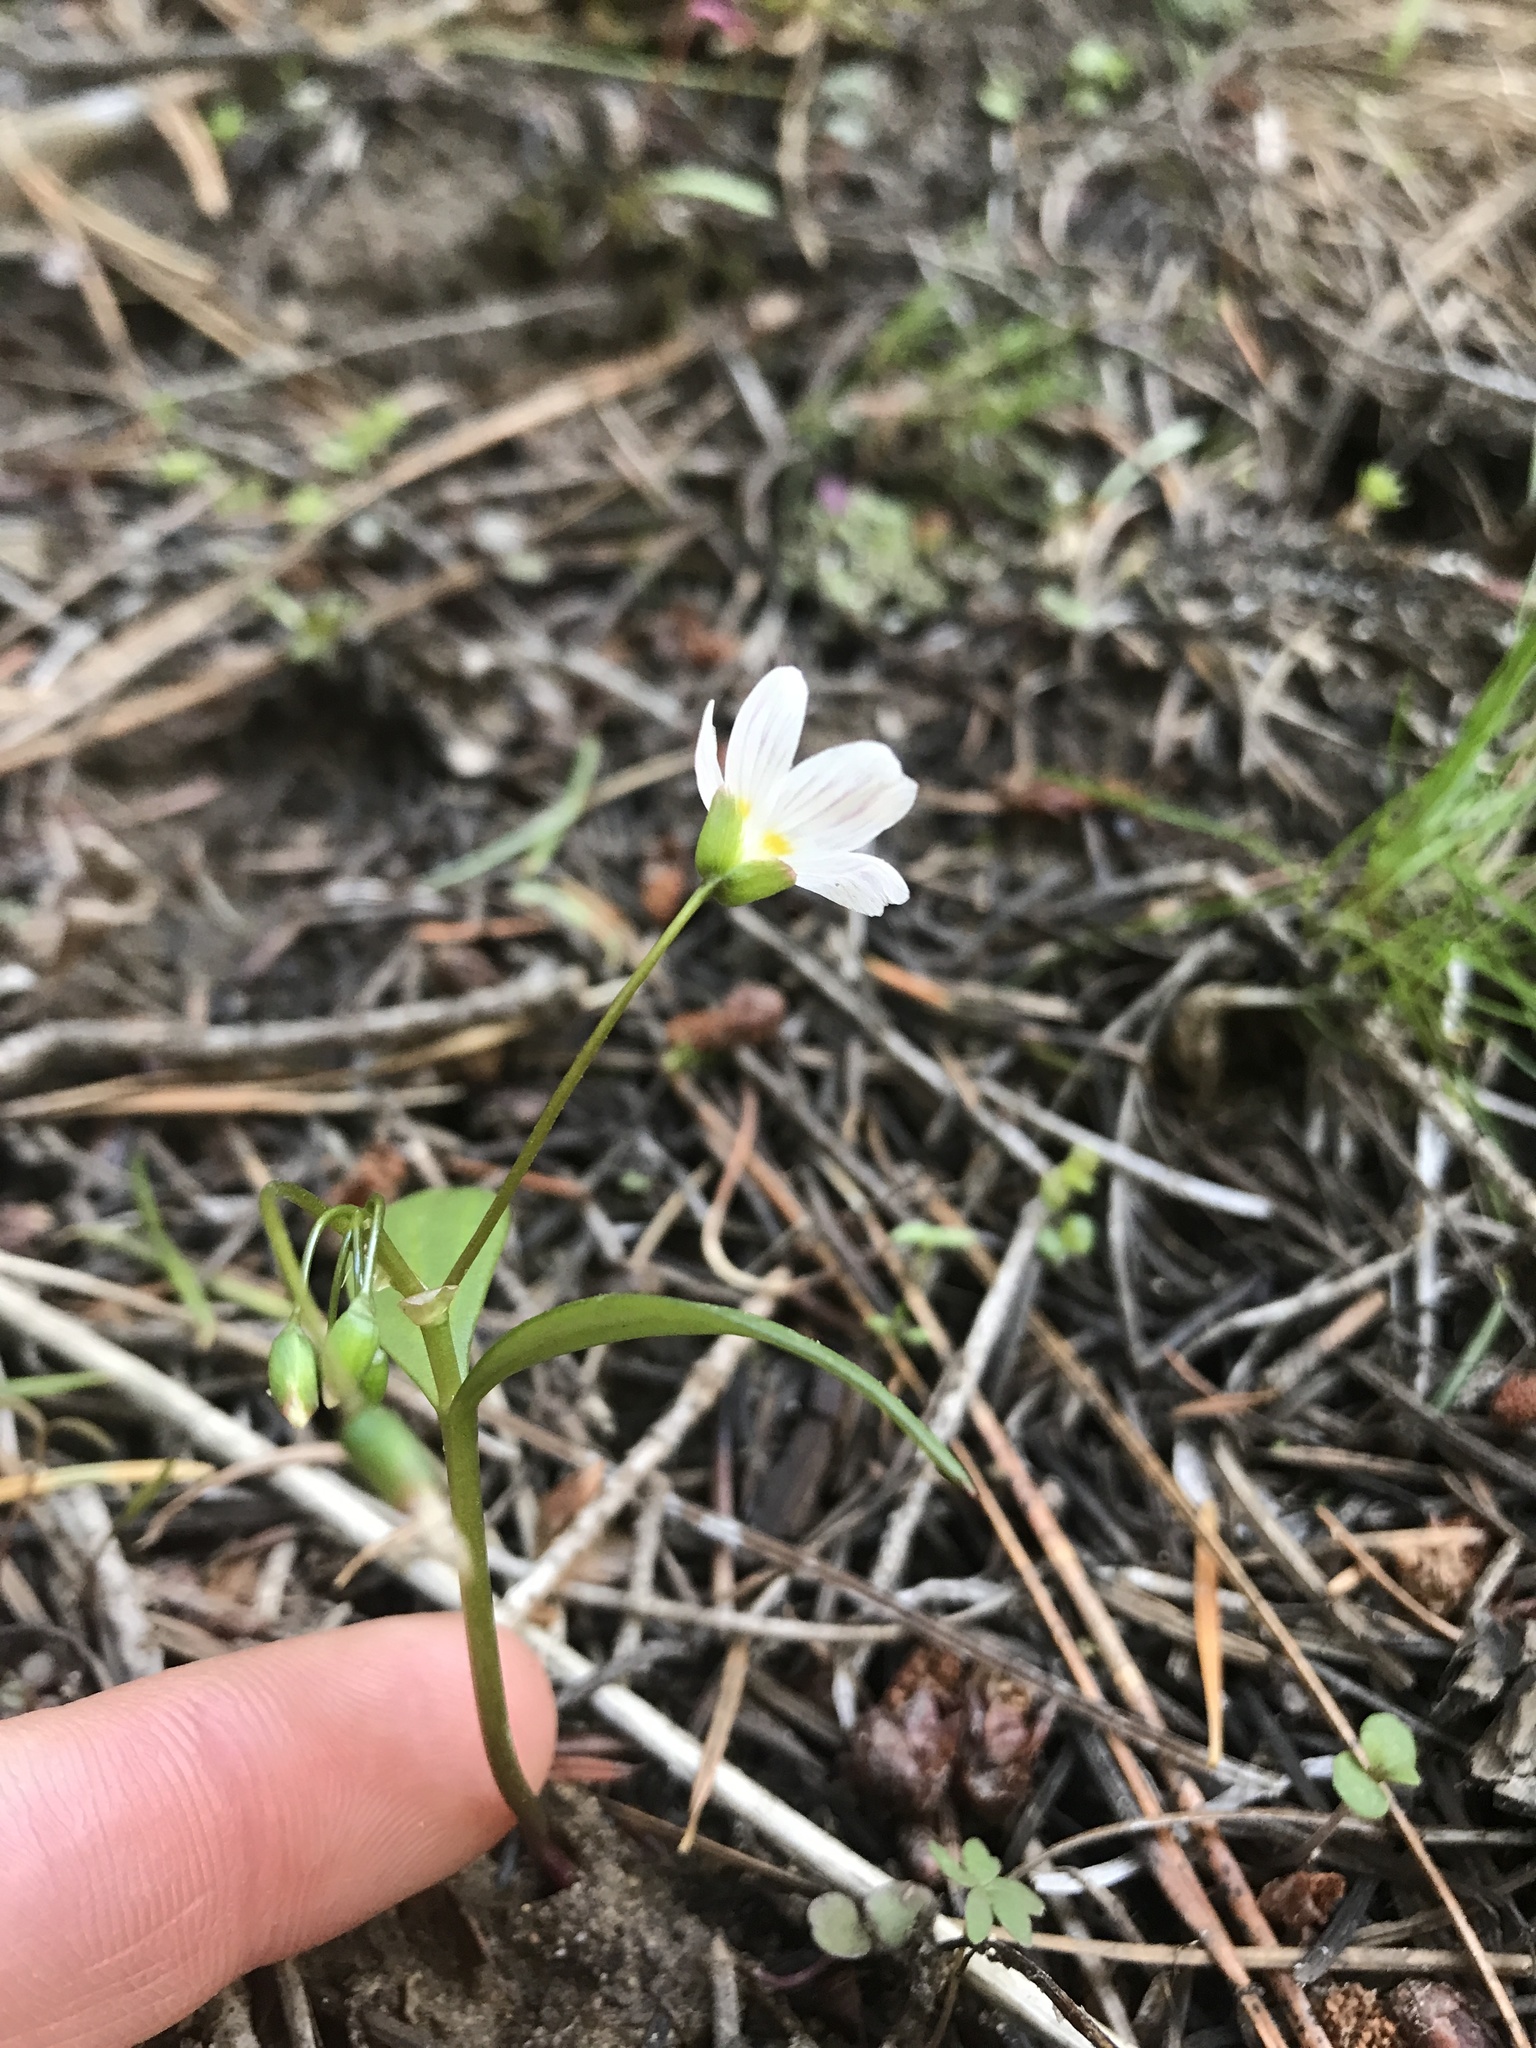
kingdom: Plantae
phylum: Tracheophyta
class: Magnoliopsida
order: Caryophyllales
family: Montiaceae
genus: Claytonia
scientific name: Claytonia lanceolata
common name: Western spring-beauty
